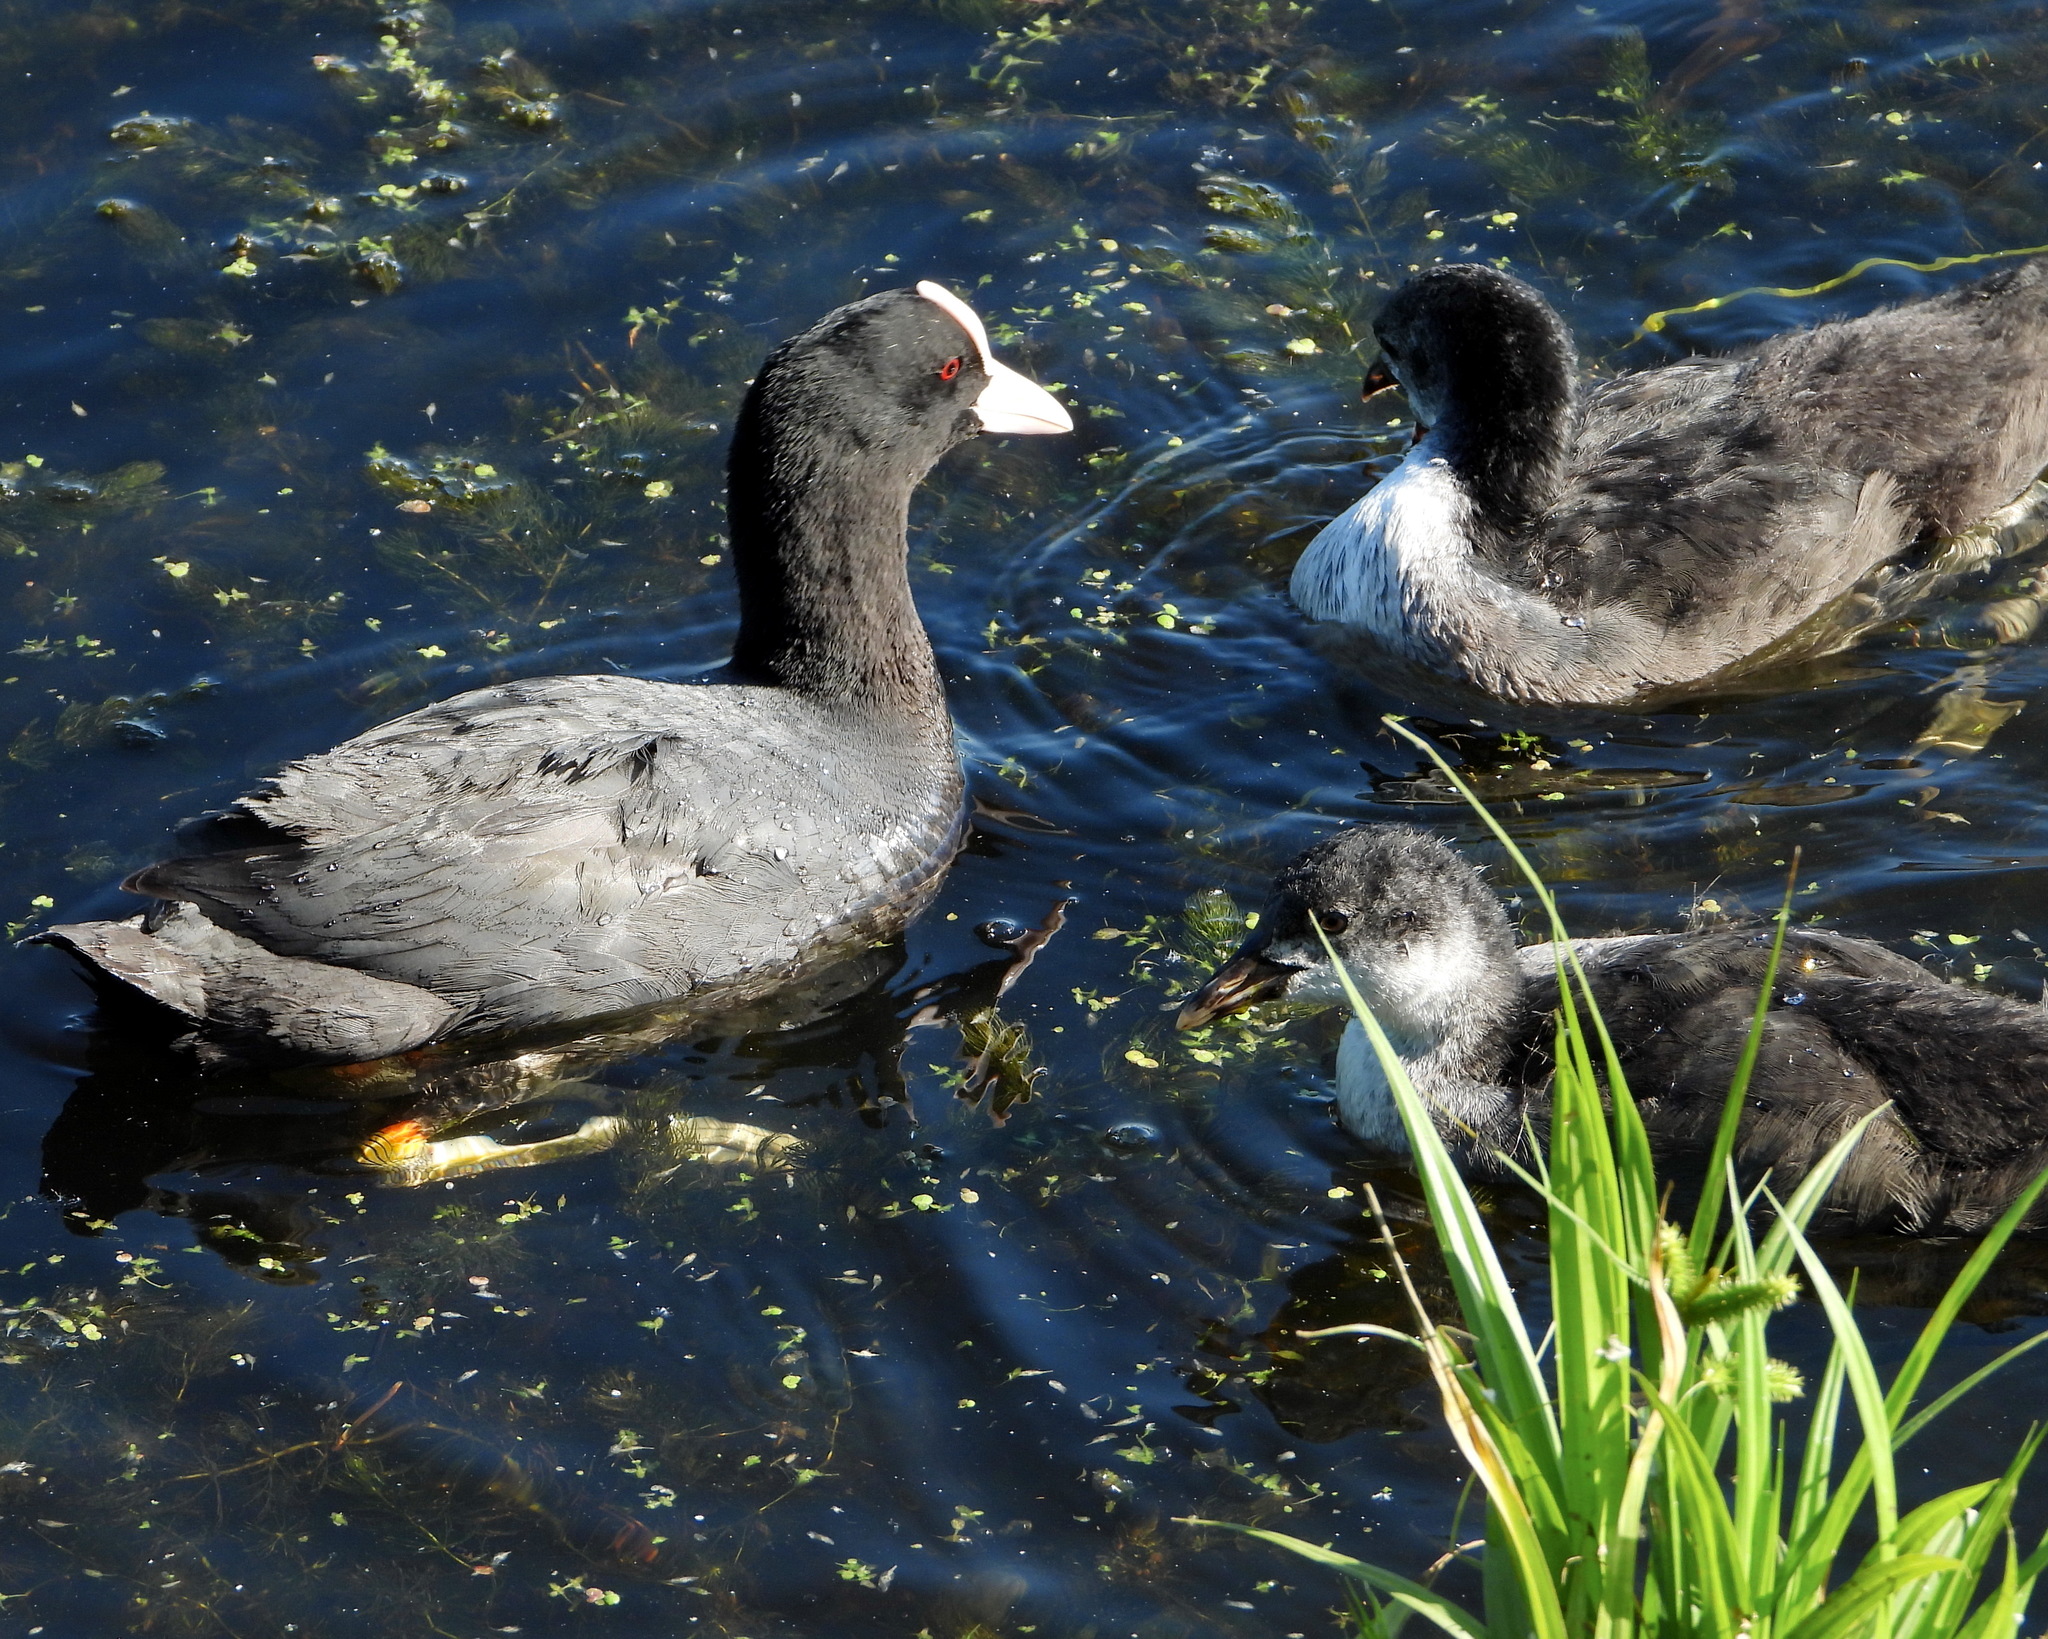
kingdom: Animalia
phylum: Chordata
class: Aves
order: Gruiformes
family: Rallidae
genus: Fulica
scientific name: Fulica atra
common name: Eurasian coot
